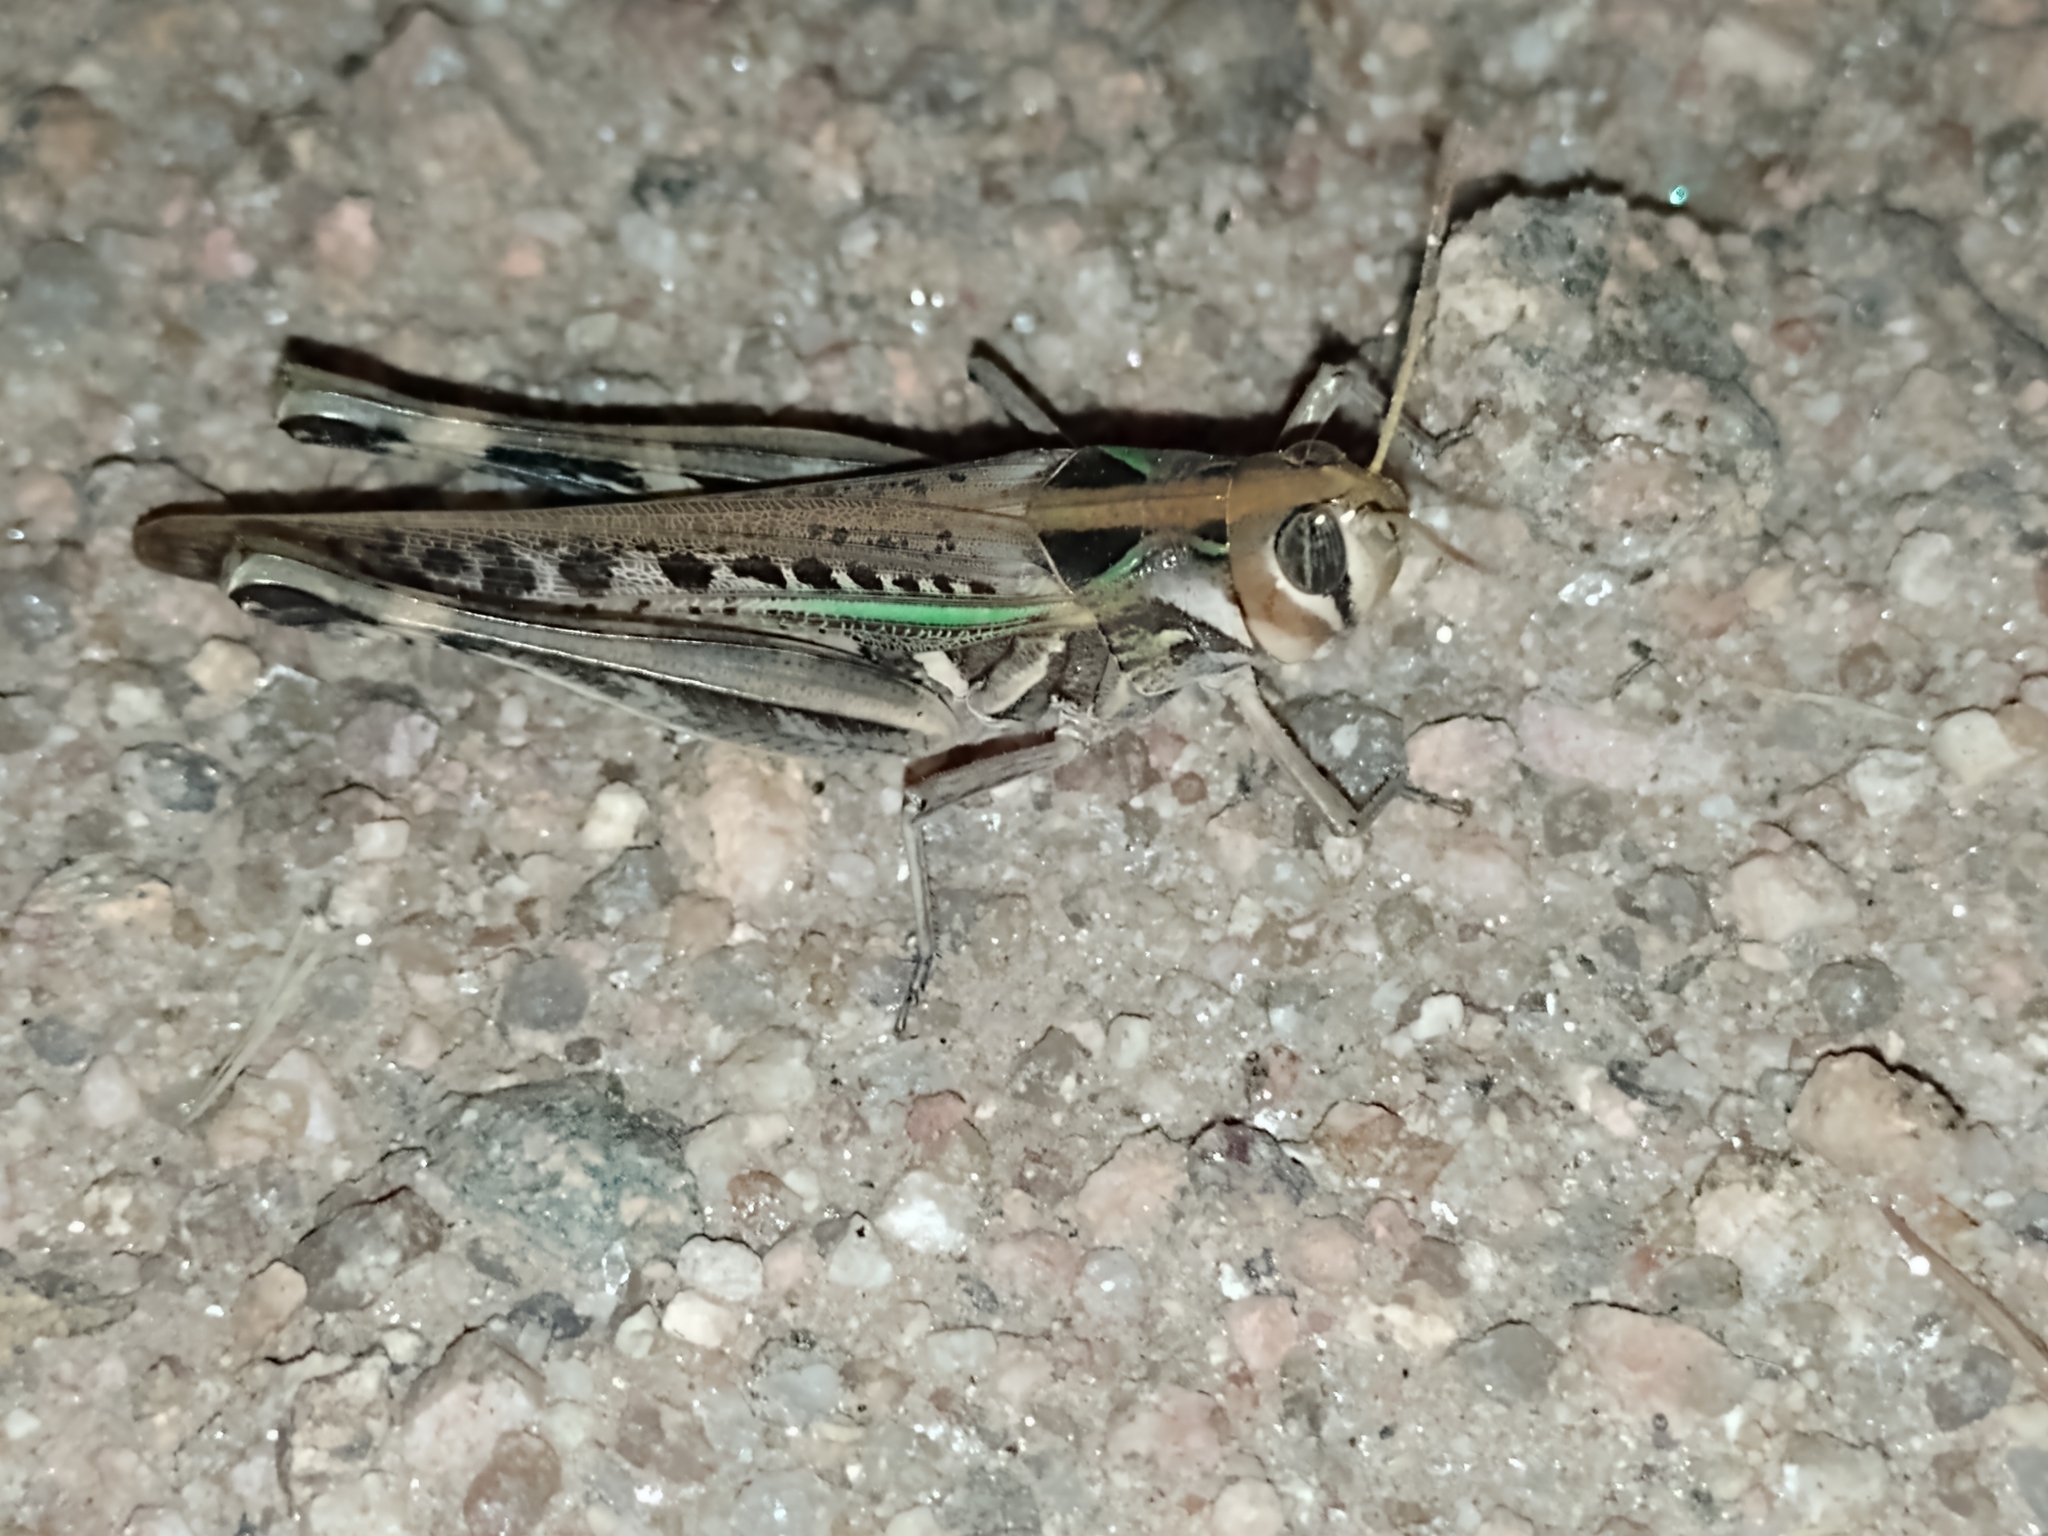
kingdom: Animalia
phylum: Arthropoda
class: Insecta
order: Orthoptera
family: Acrididae
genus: Rhammatocerus
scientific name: Rhammatocerus pictus
